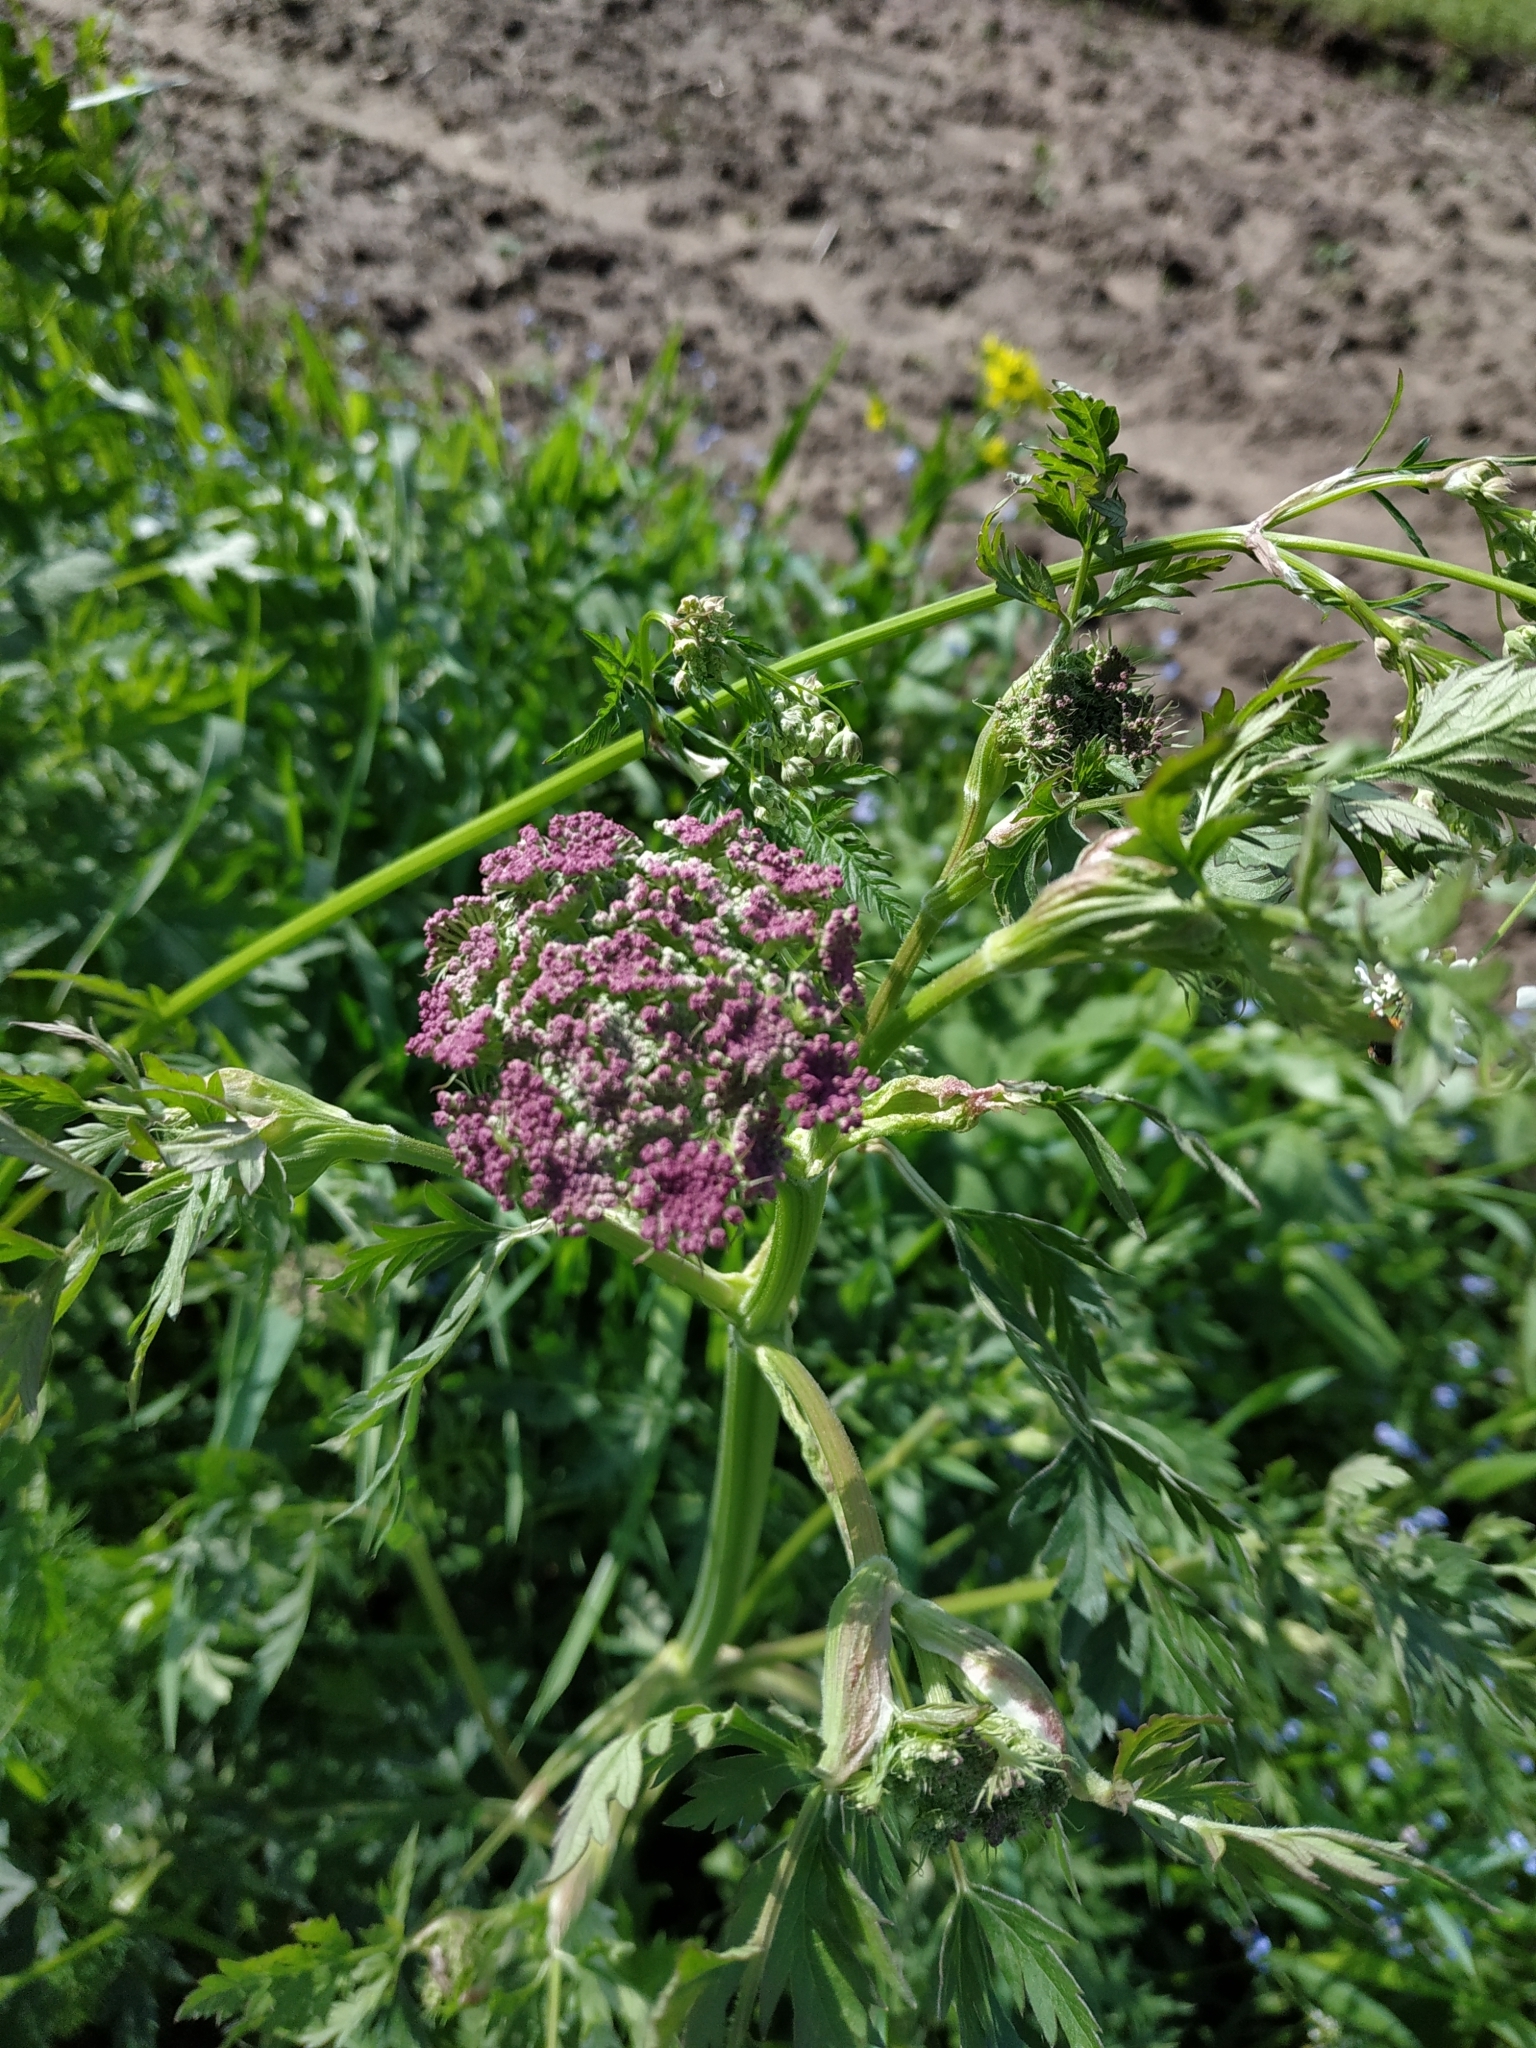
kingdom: Plantae
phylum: Tracheophyta
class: Magnoliopsida
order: Apiales
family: Apiaceae
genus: Seseli
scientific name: Seseli libanotis
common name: Mooncarrot
